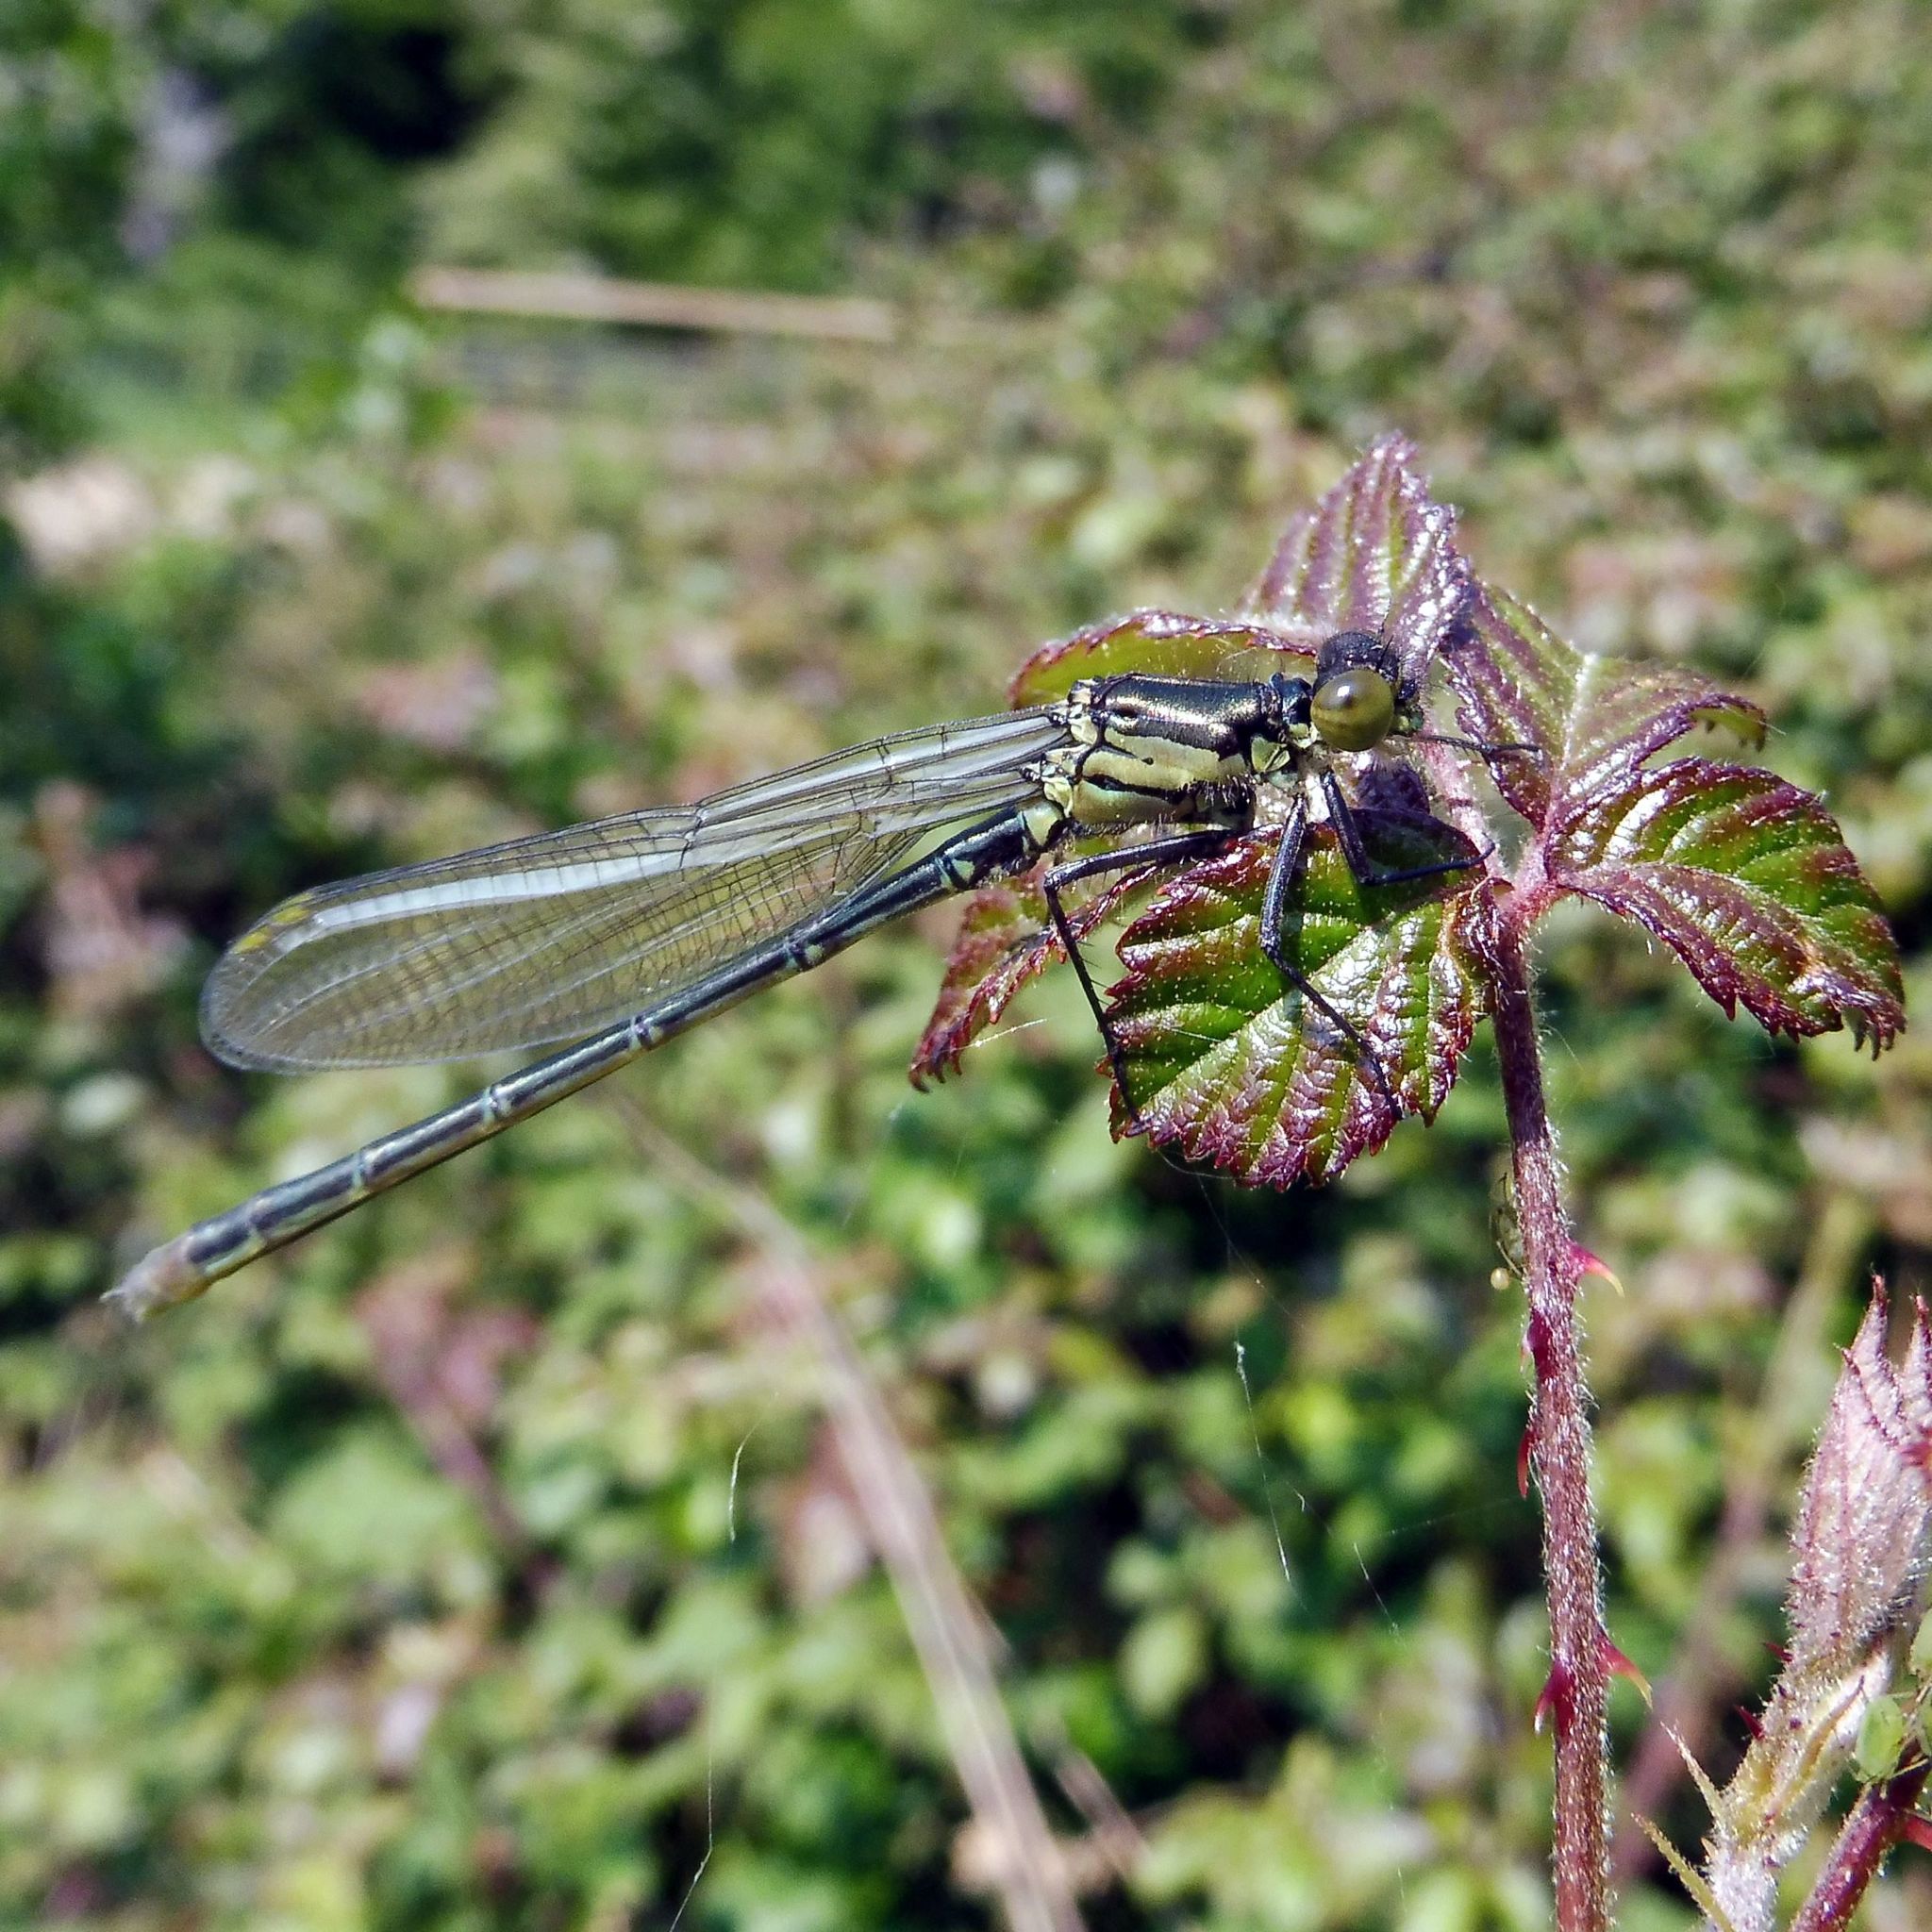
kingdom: Animalia
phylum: Arthropoda
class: Insecta
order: Odonata
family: Coenagrionidae
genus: Erythromma
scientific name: Erythromma najas
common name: Red-eyed damselfly
